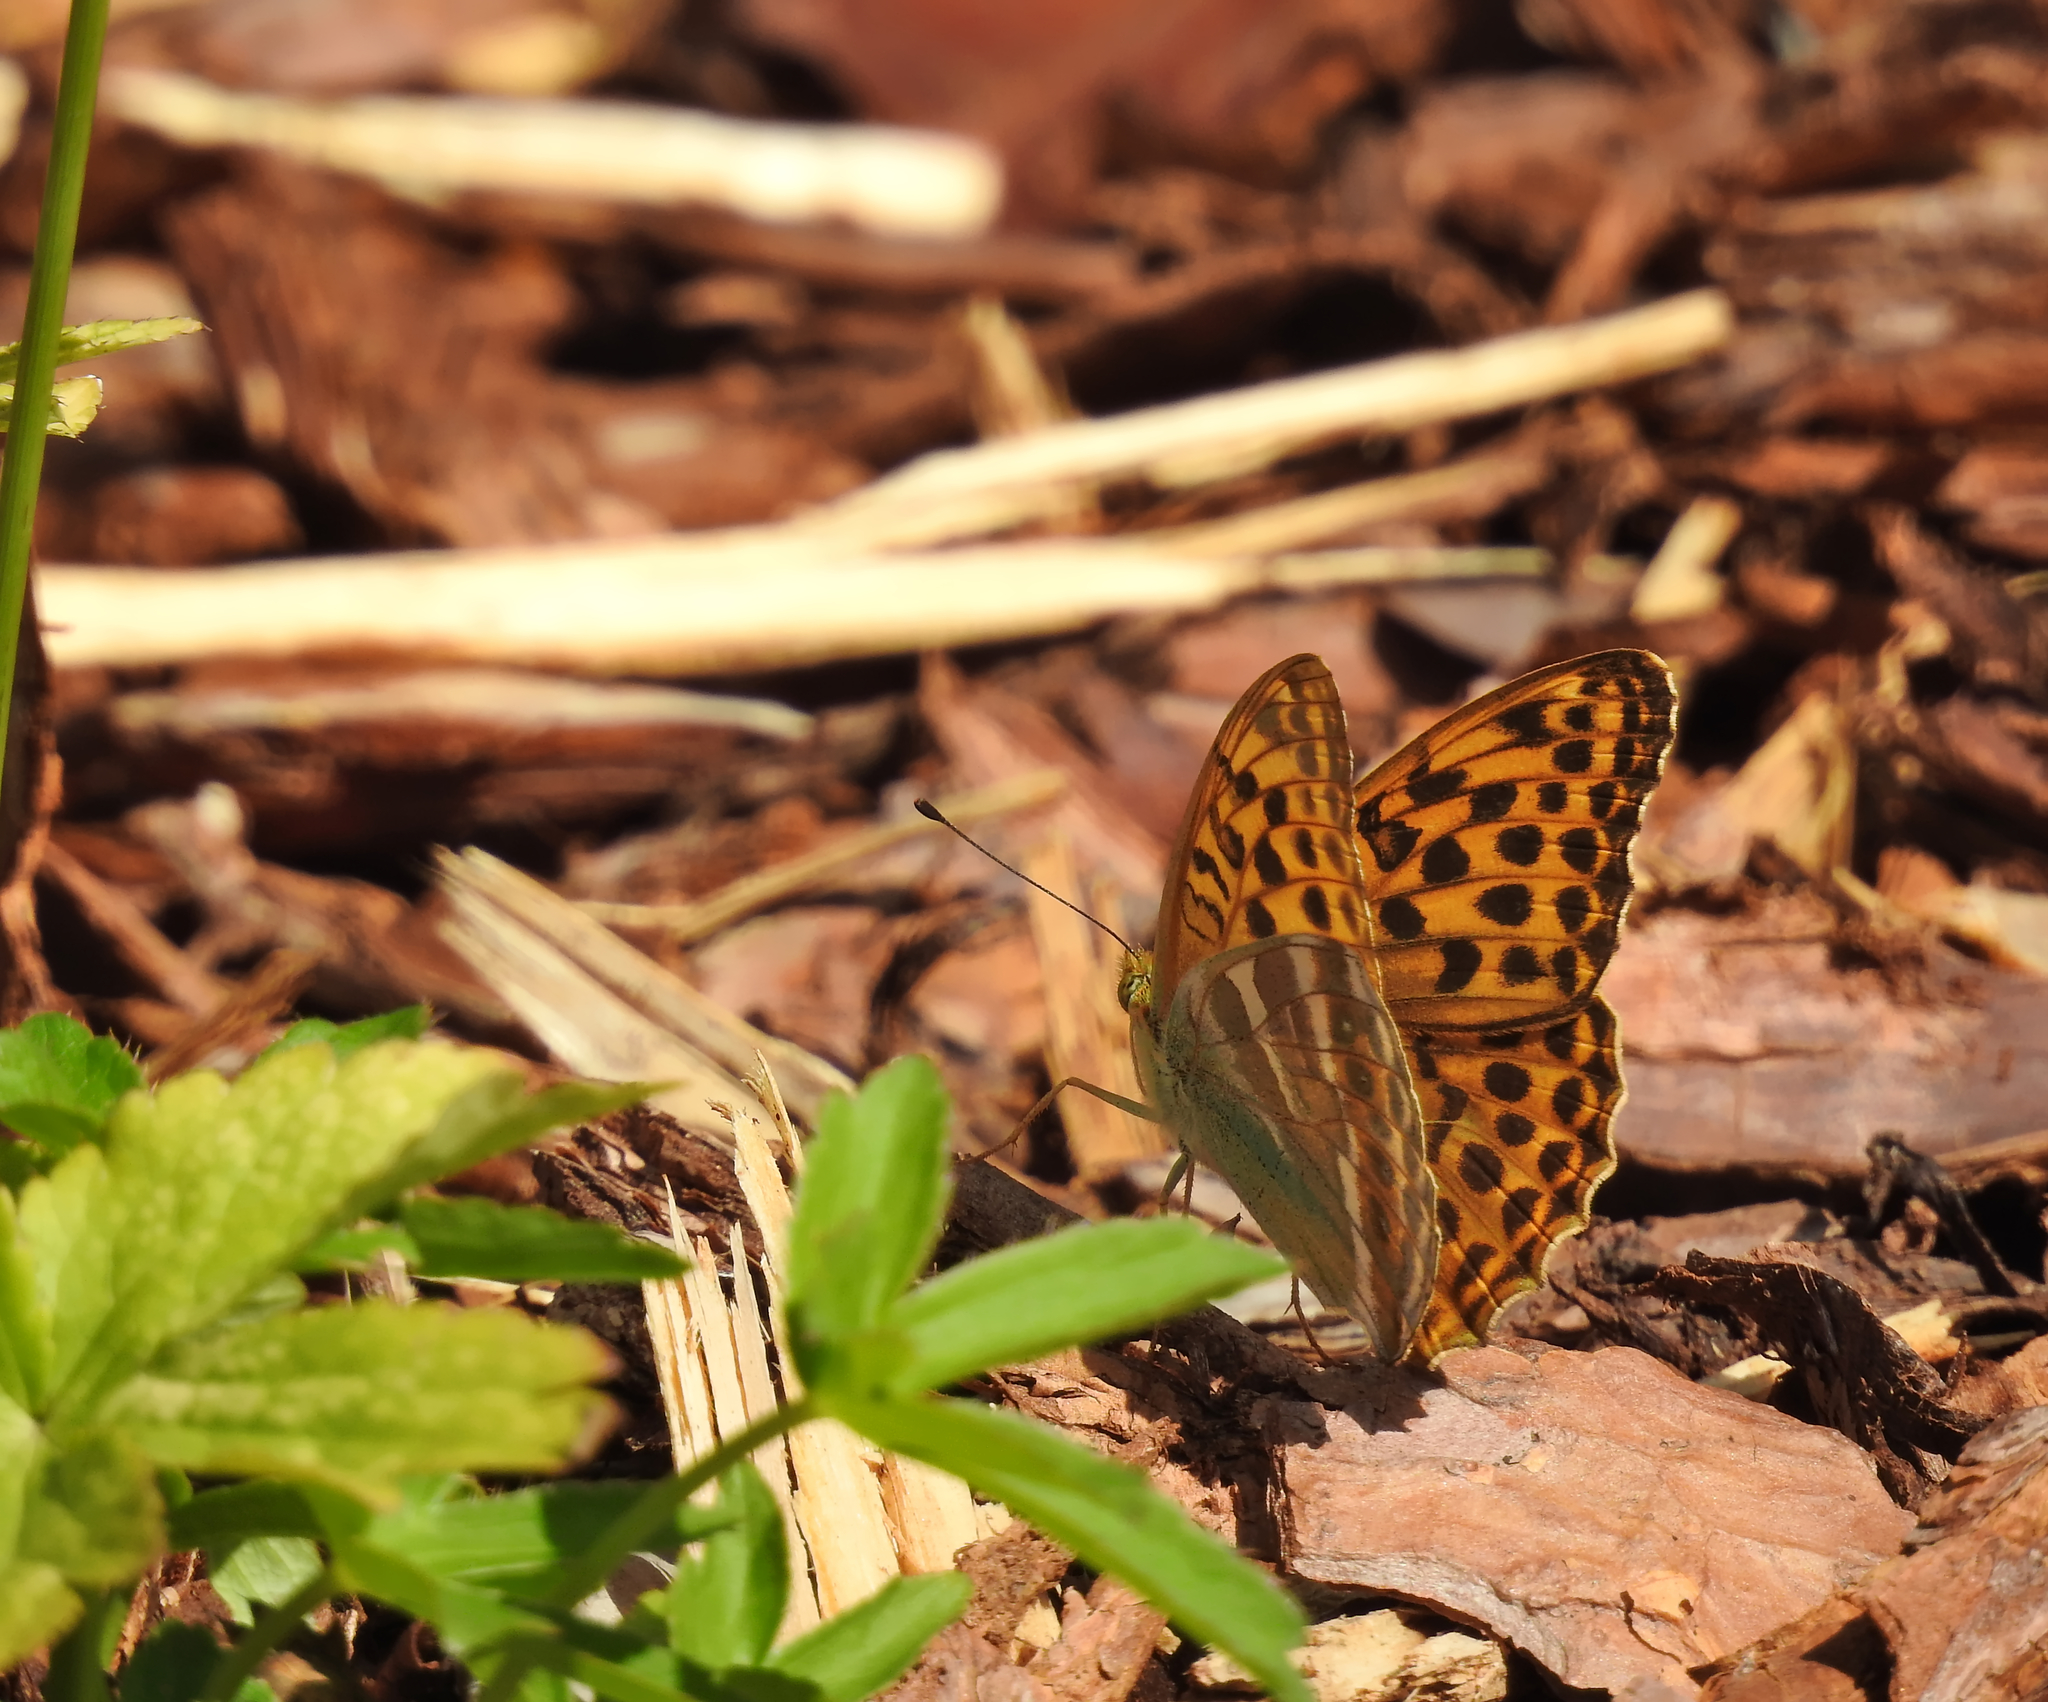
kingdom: Animalia
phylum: Arthropoda
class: Insecta
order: Lepidoptera
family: Nymphalidae
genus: Argynnis
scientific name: Argynnis paphia
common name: Silver-washed fritillary
